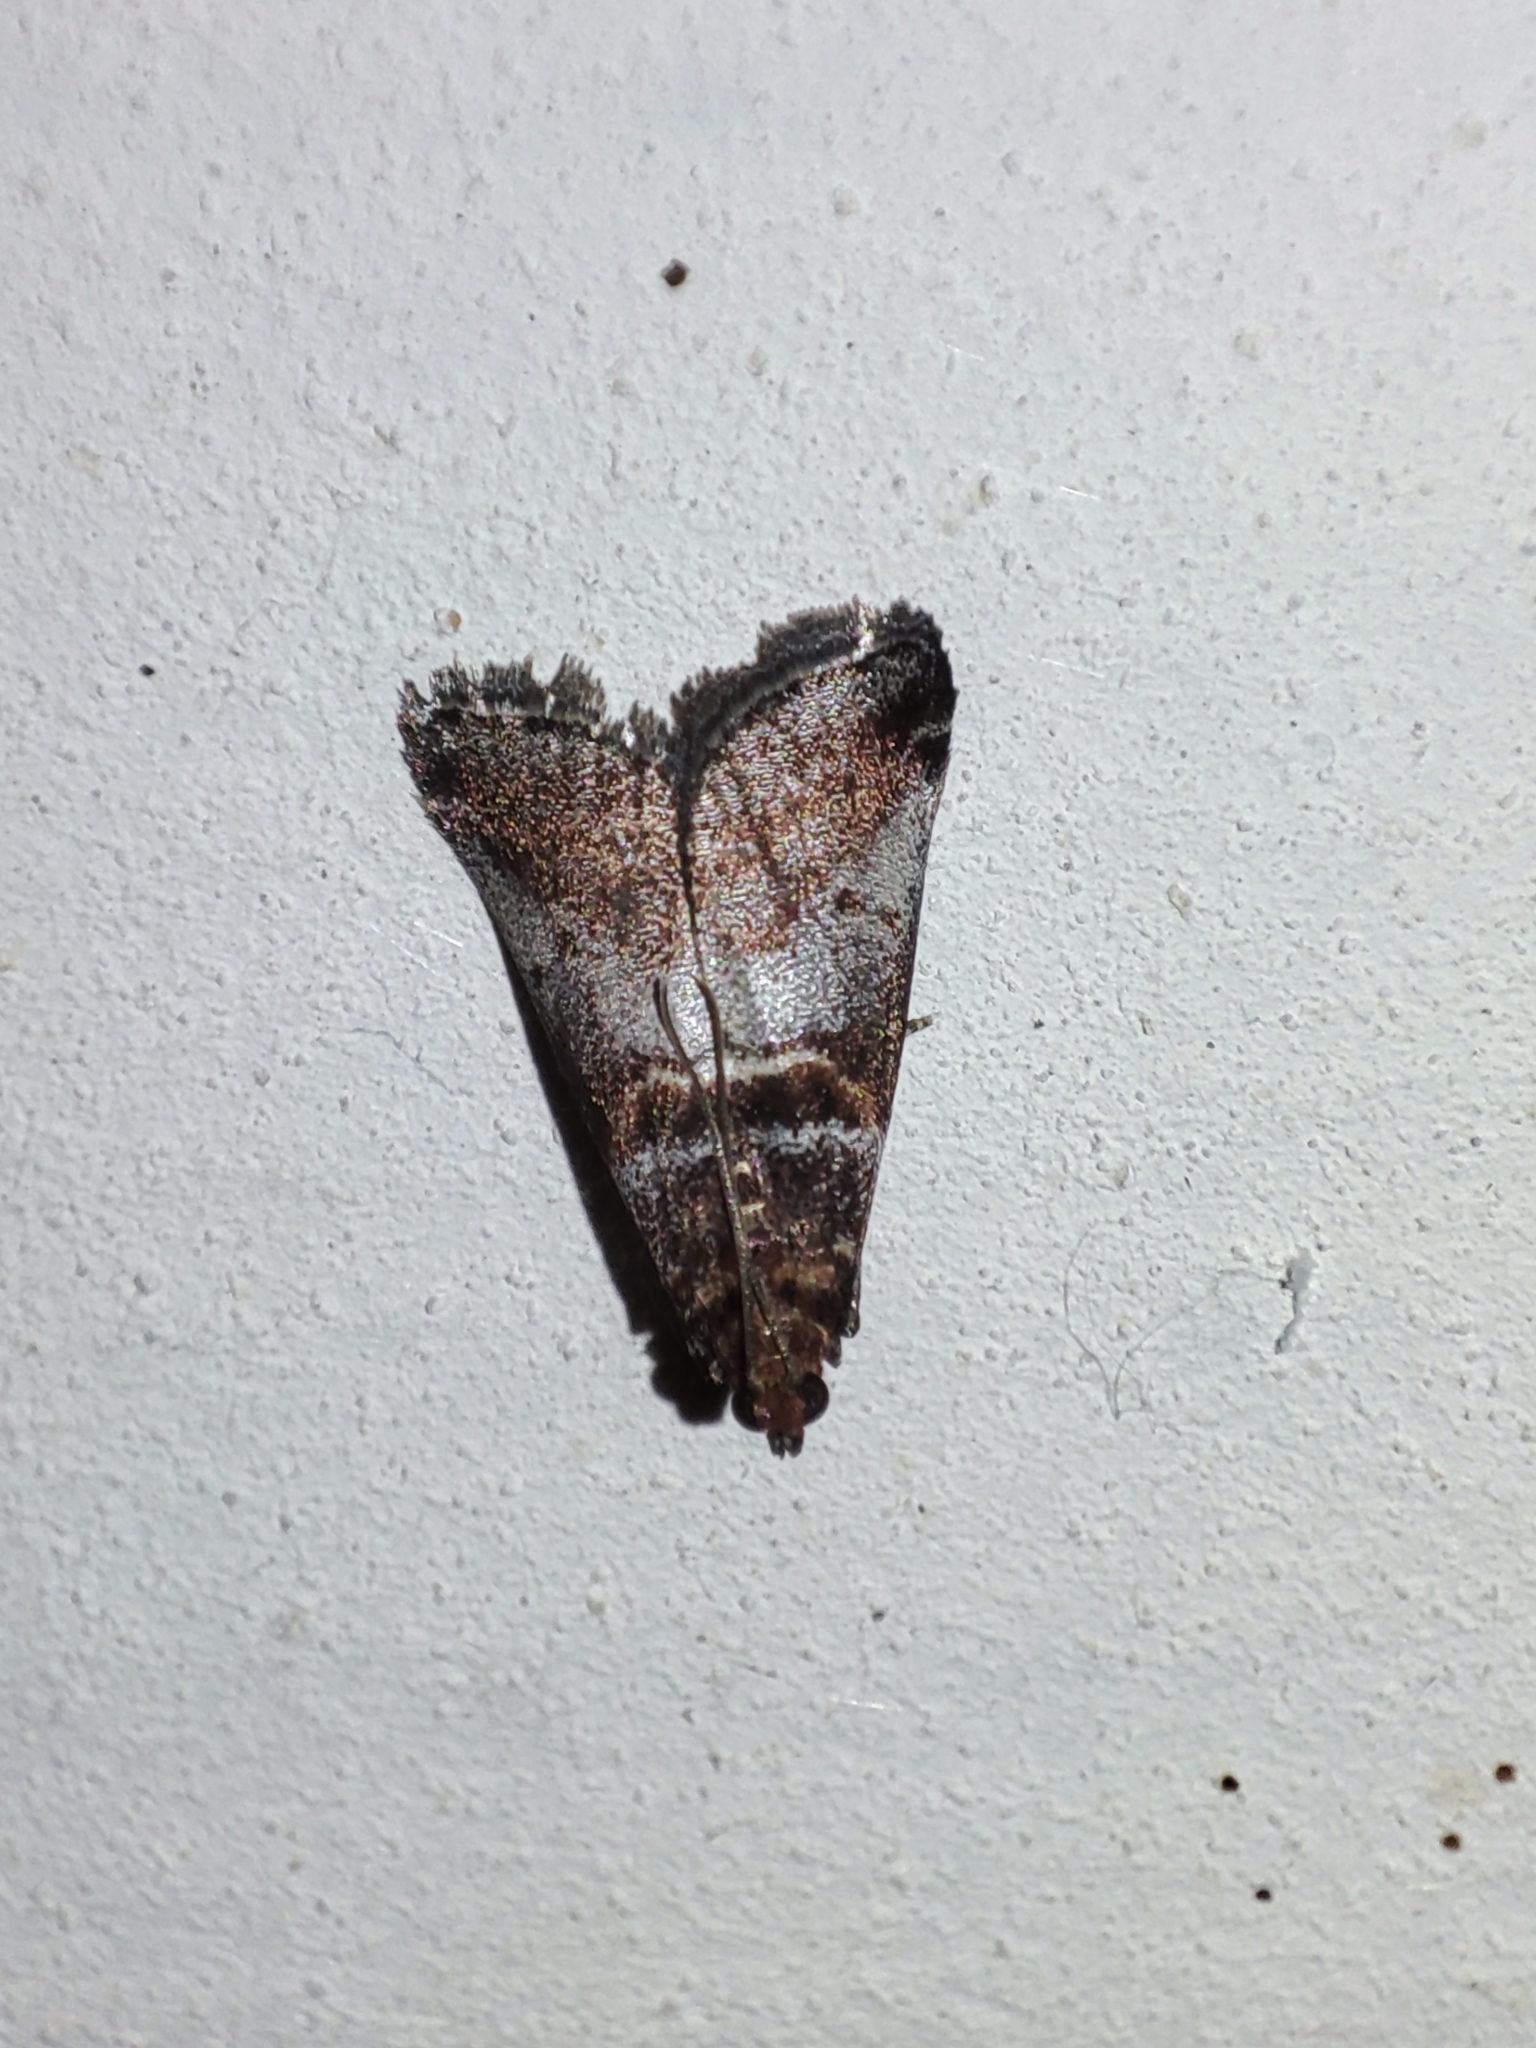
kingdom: Animalia
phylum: Arthropoda
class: Insecta
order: Lepidoptera
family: Pyralidae
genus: Acrobasis
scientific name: Acrobasis advenella
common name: Grey knot-horn
